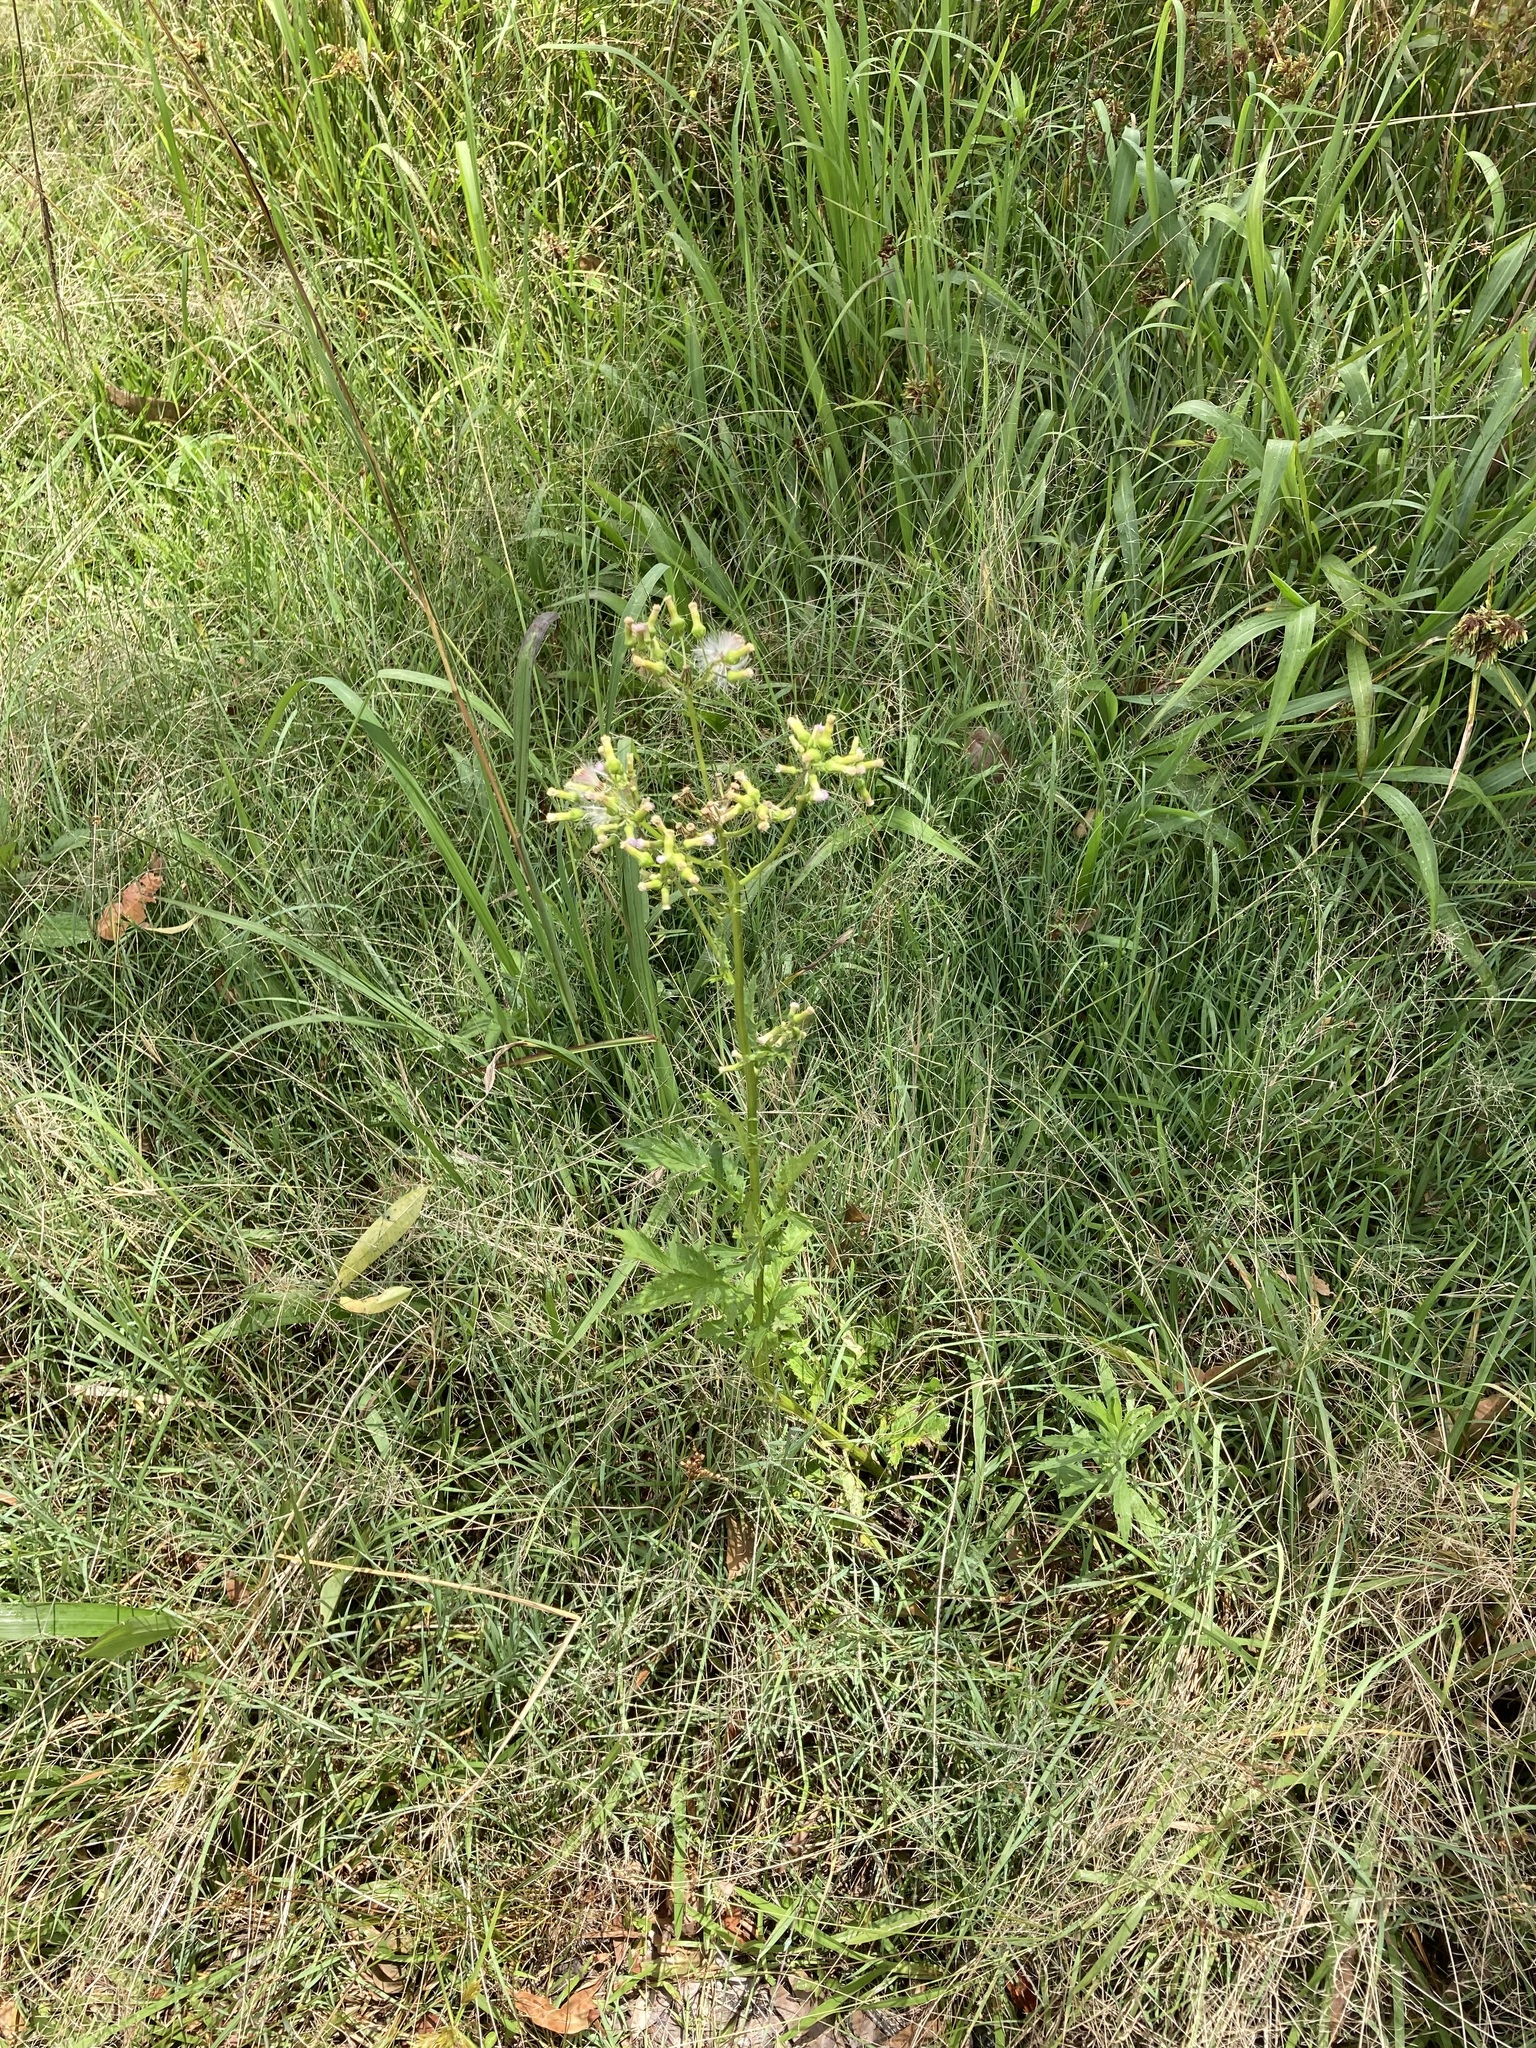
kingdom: Plantae
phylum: Tracheophyta
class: Magnoliopsida
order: Asterales
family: Asteraceae
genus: Erechtites
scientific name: Erechtites valerianifolius
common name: Tropical burnweed
